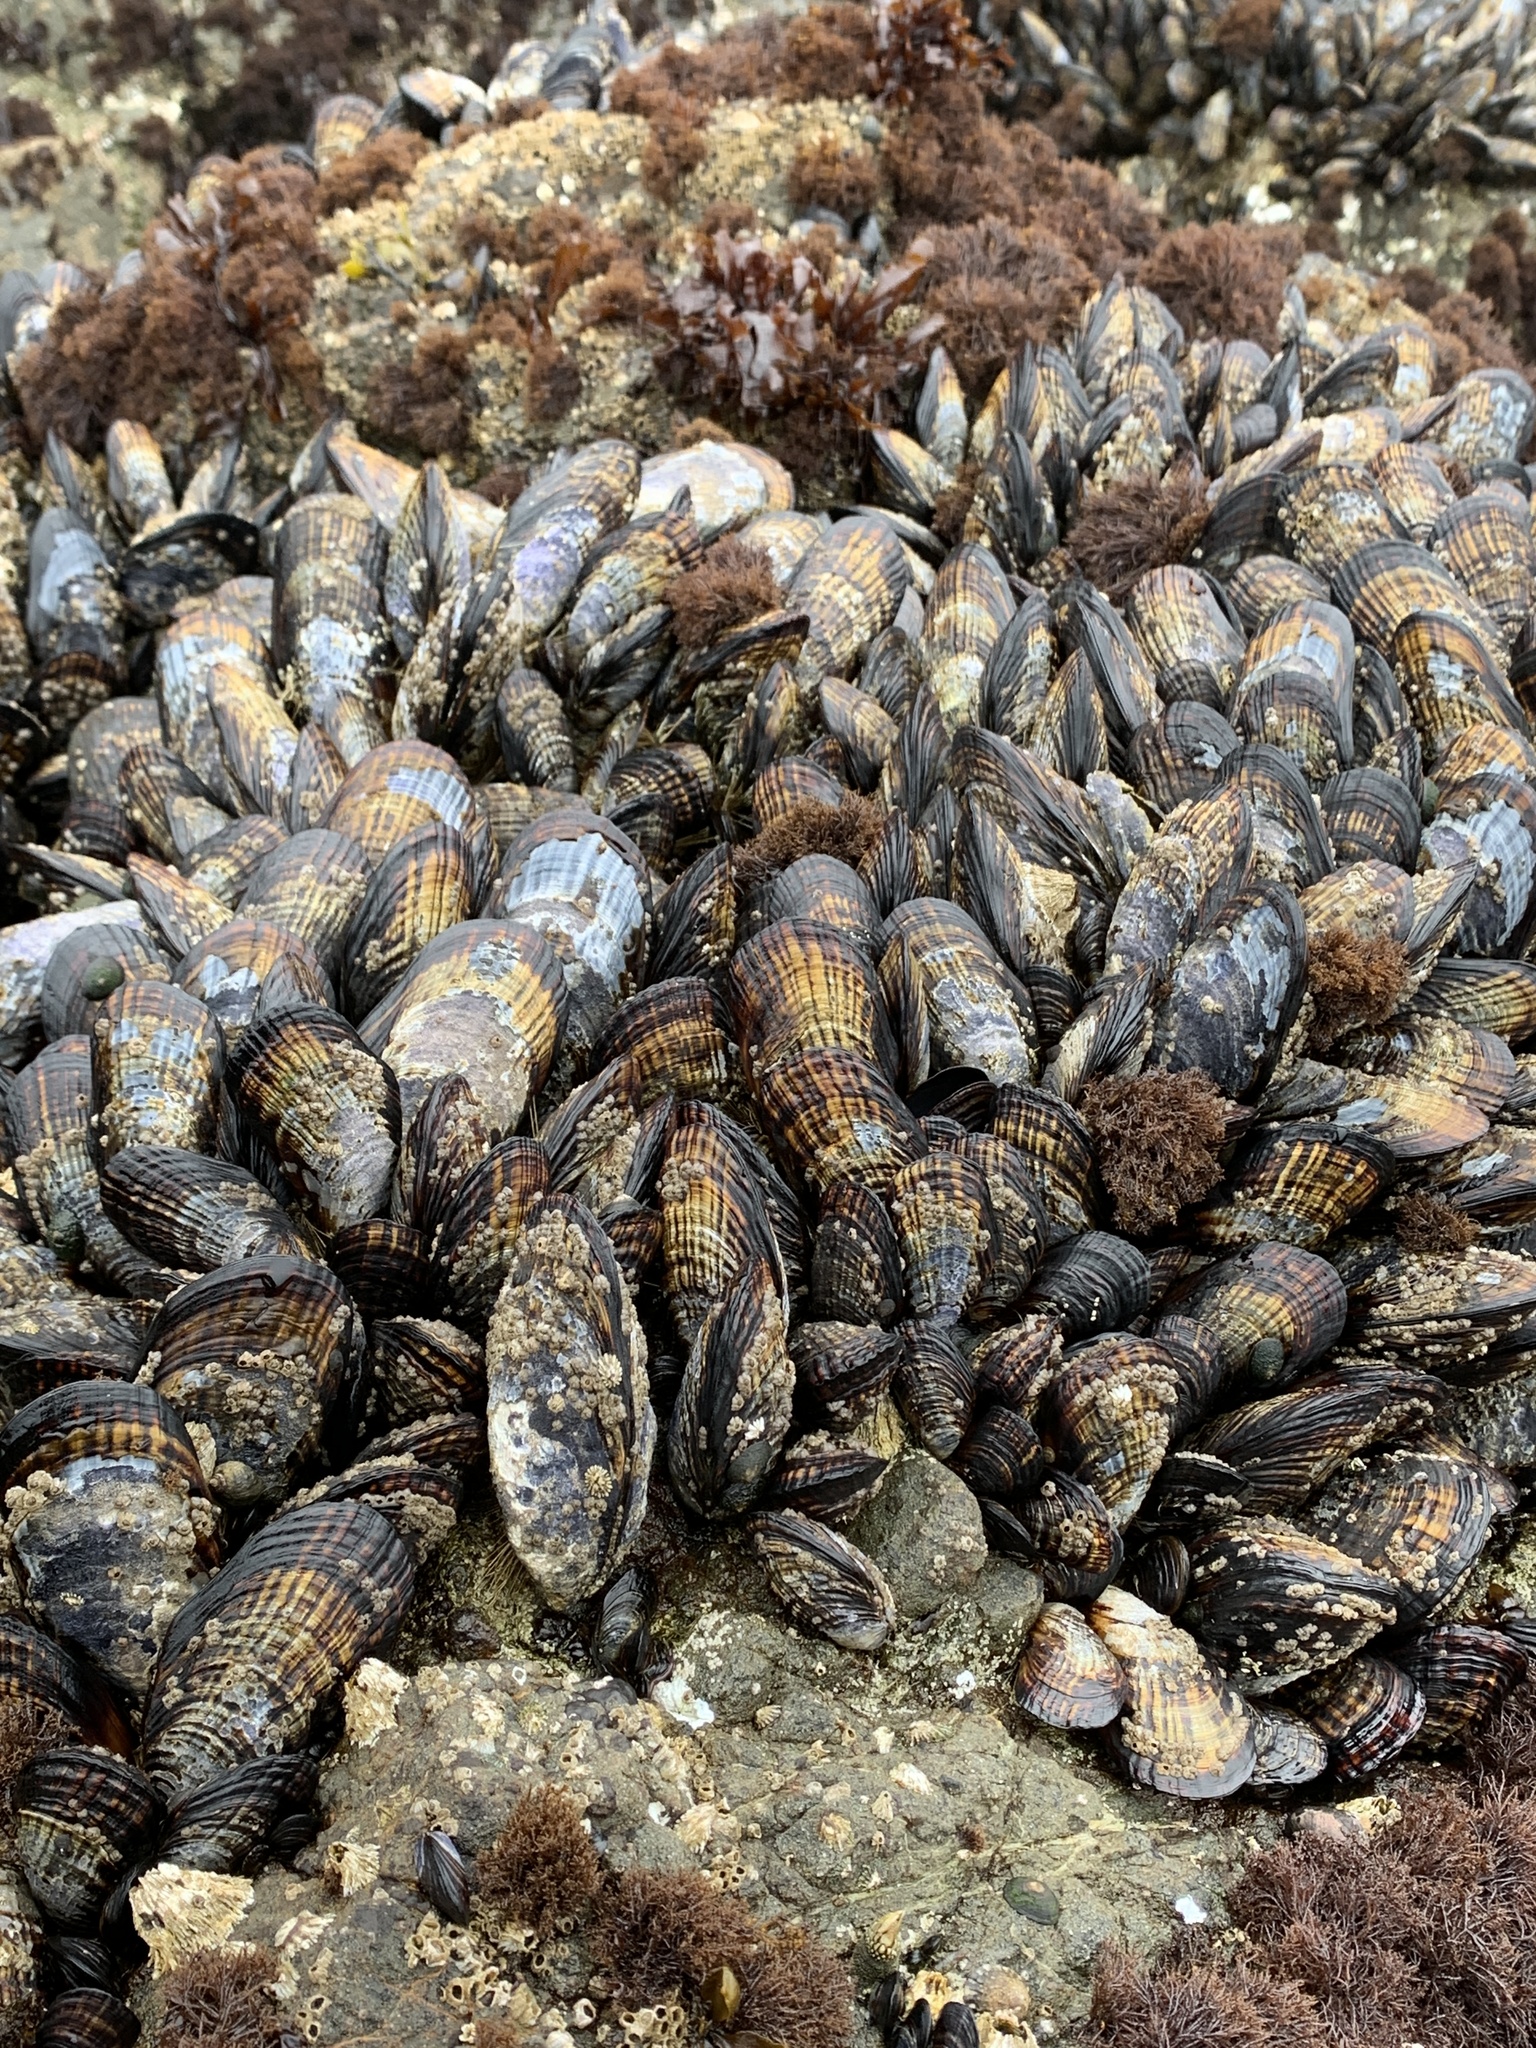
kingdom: Animalia
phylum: Mollusca
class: Bivalvia
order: Mytilida
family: Mytilidae
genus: Mytilus
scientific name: Mytilus californianus
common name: California mussel
